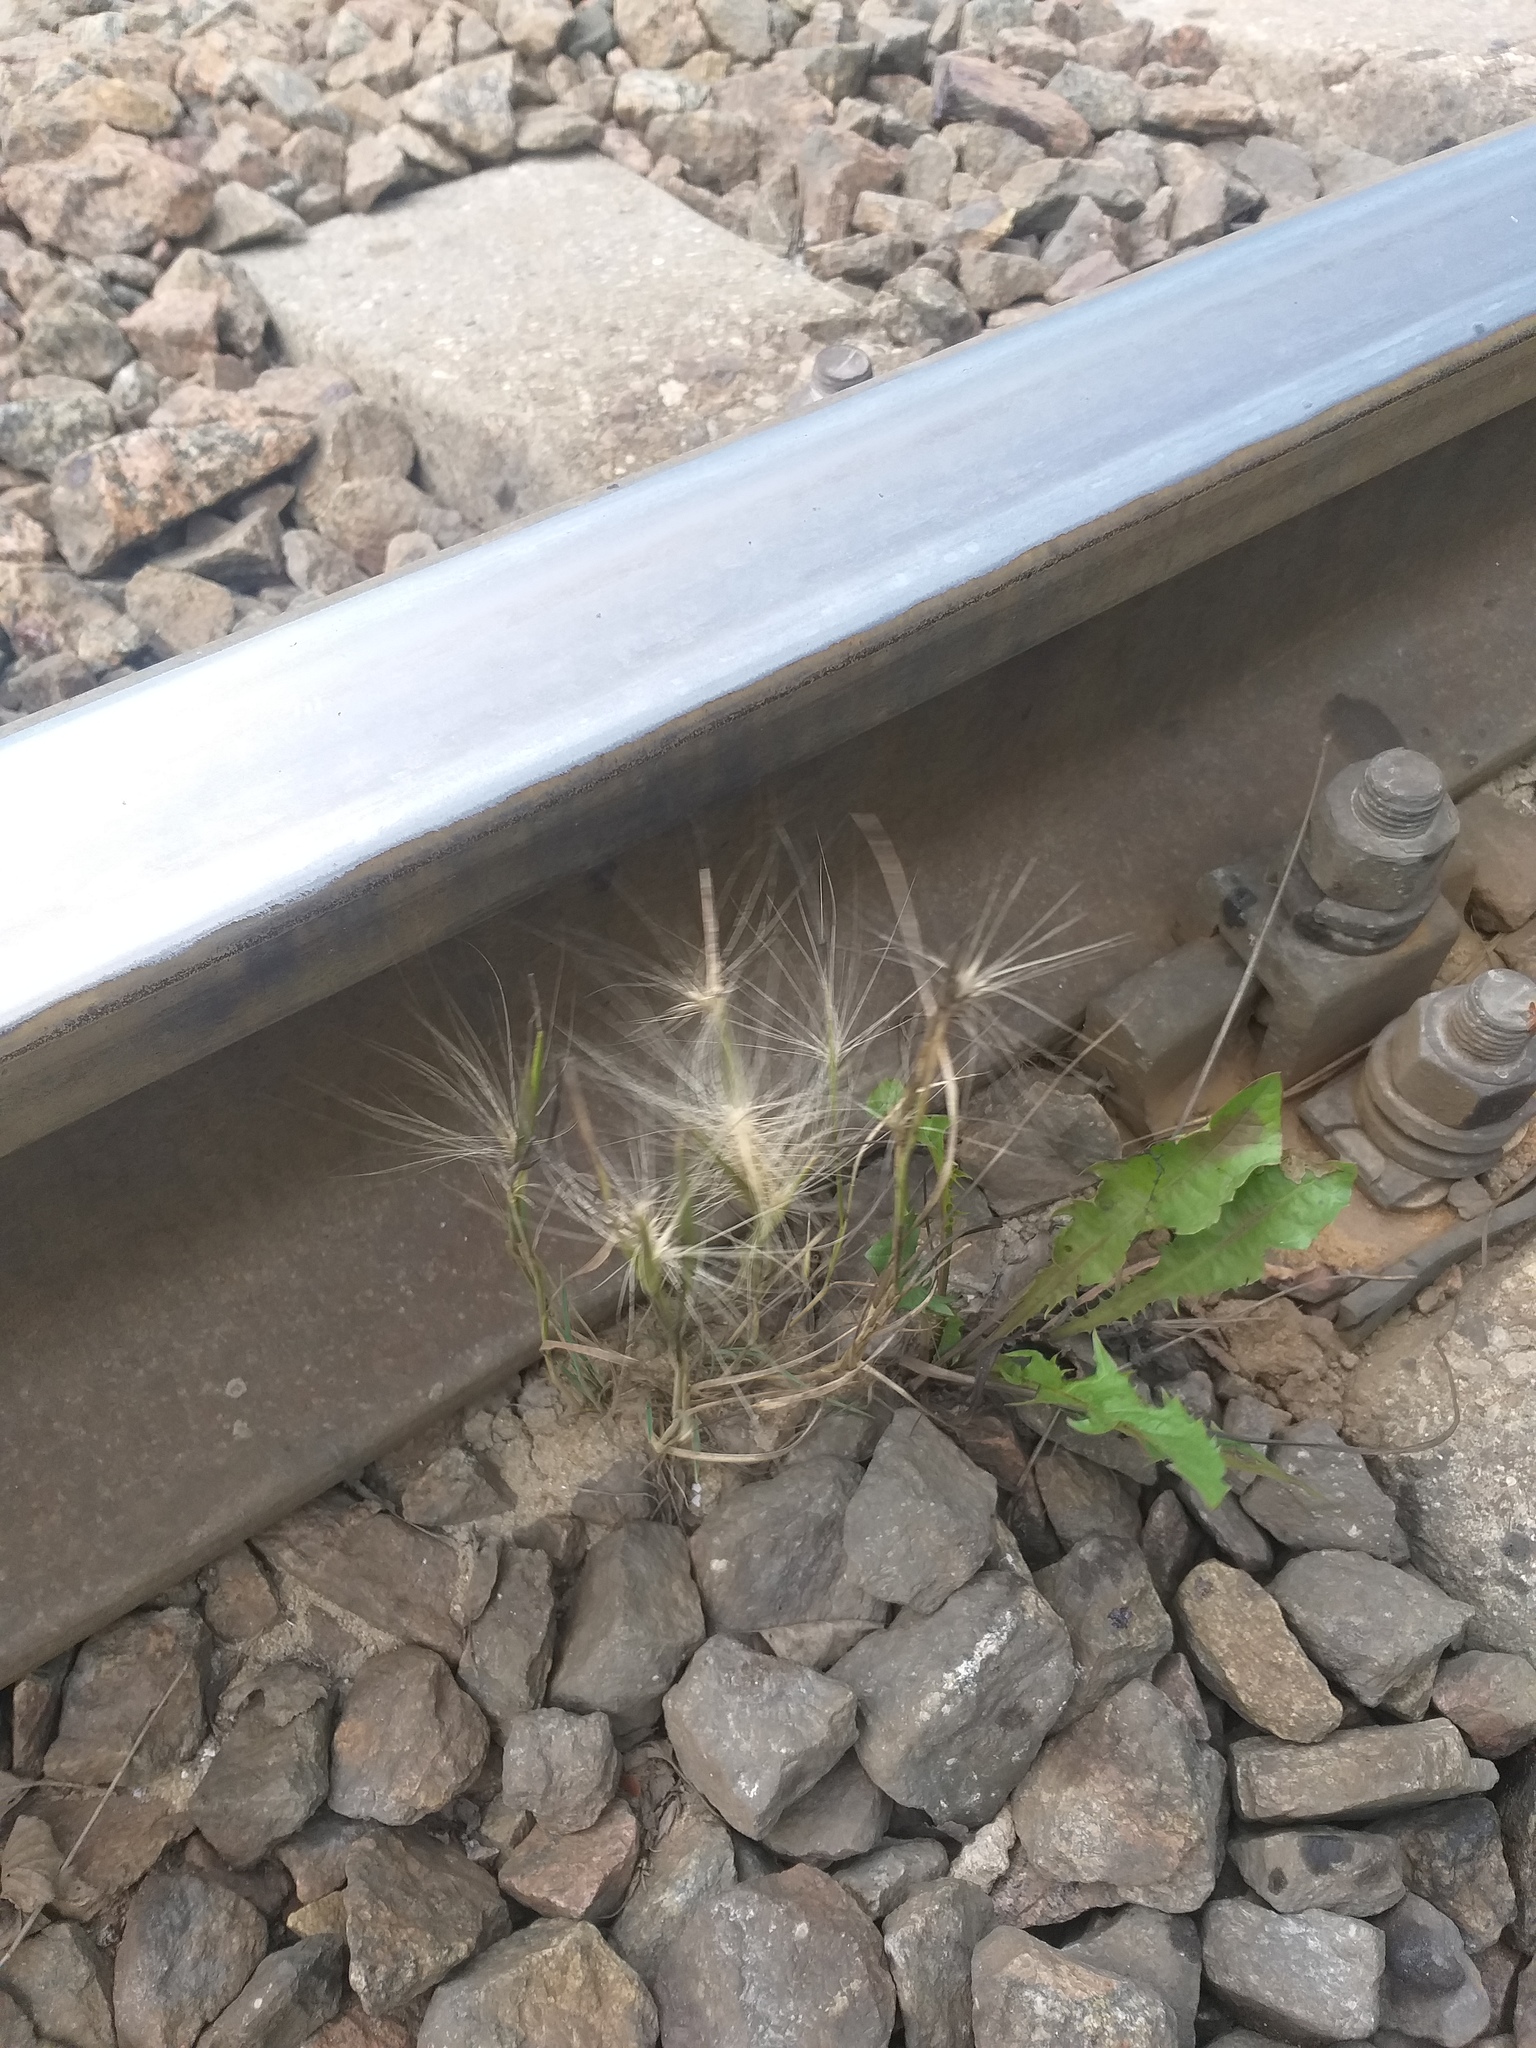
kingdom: Plantae
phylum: Tracheophyta
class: Liliopsida
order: Poales
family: Poaceae
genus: Hordeum
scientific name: Hordeum jubatum
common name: Foxtail barley
